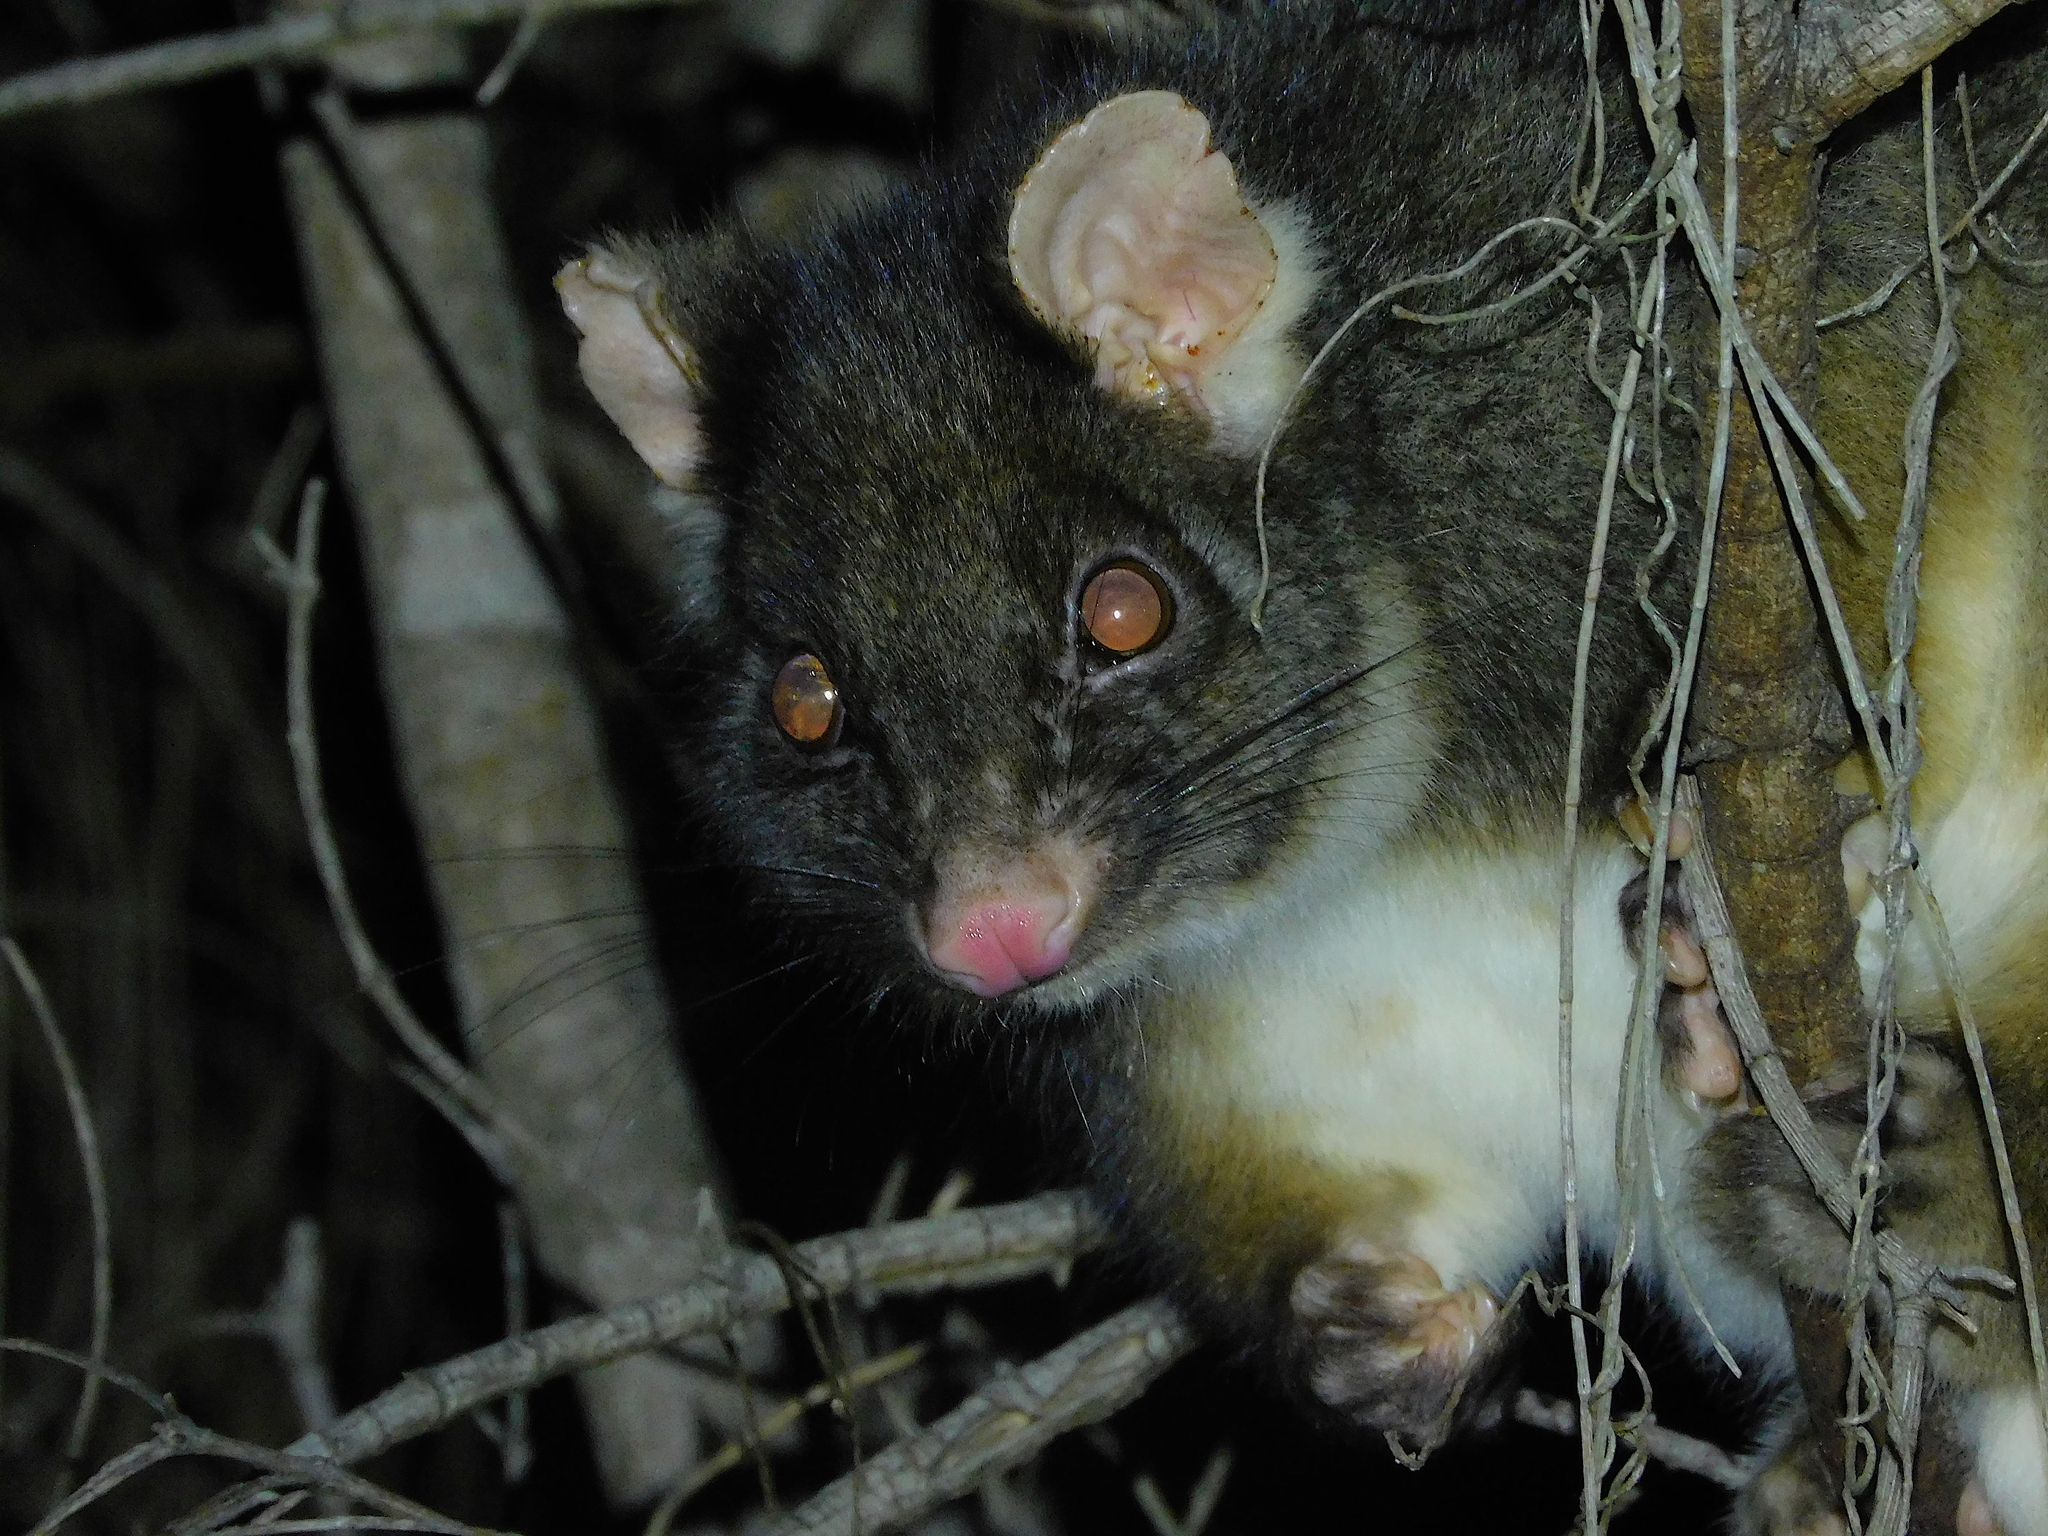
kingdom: Animalia
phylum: Chordata
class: Mammalia
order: Diprotodontia
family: Pseudocheiridae
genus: Pseudocheirus
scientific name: Pseudocheirus peregrinus
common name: Common ringtail possum
